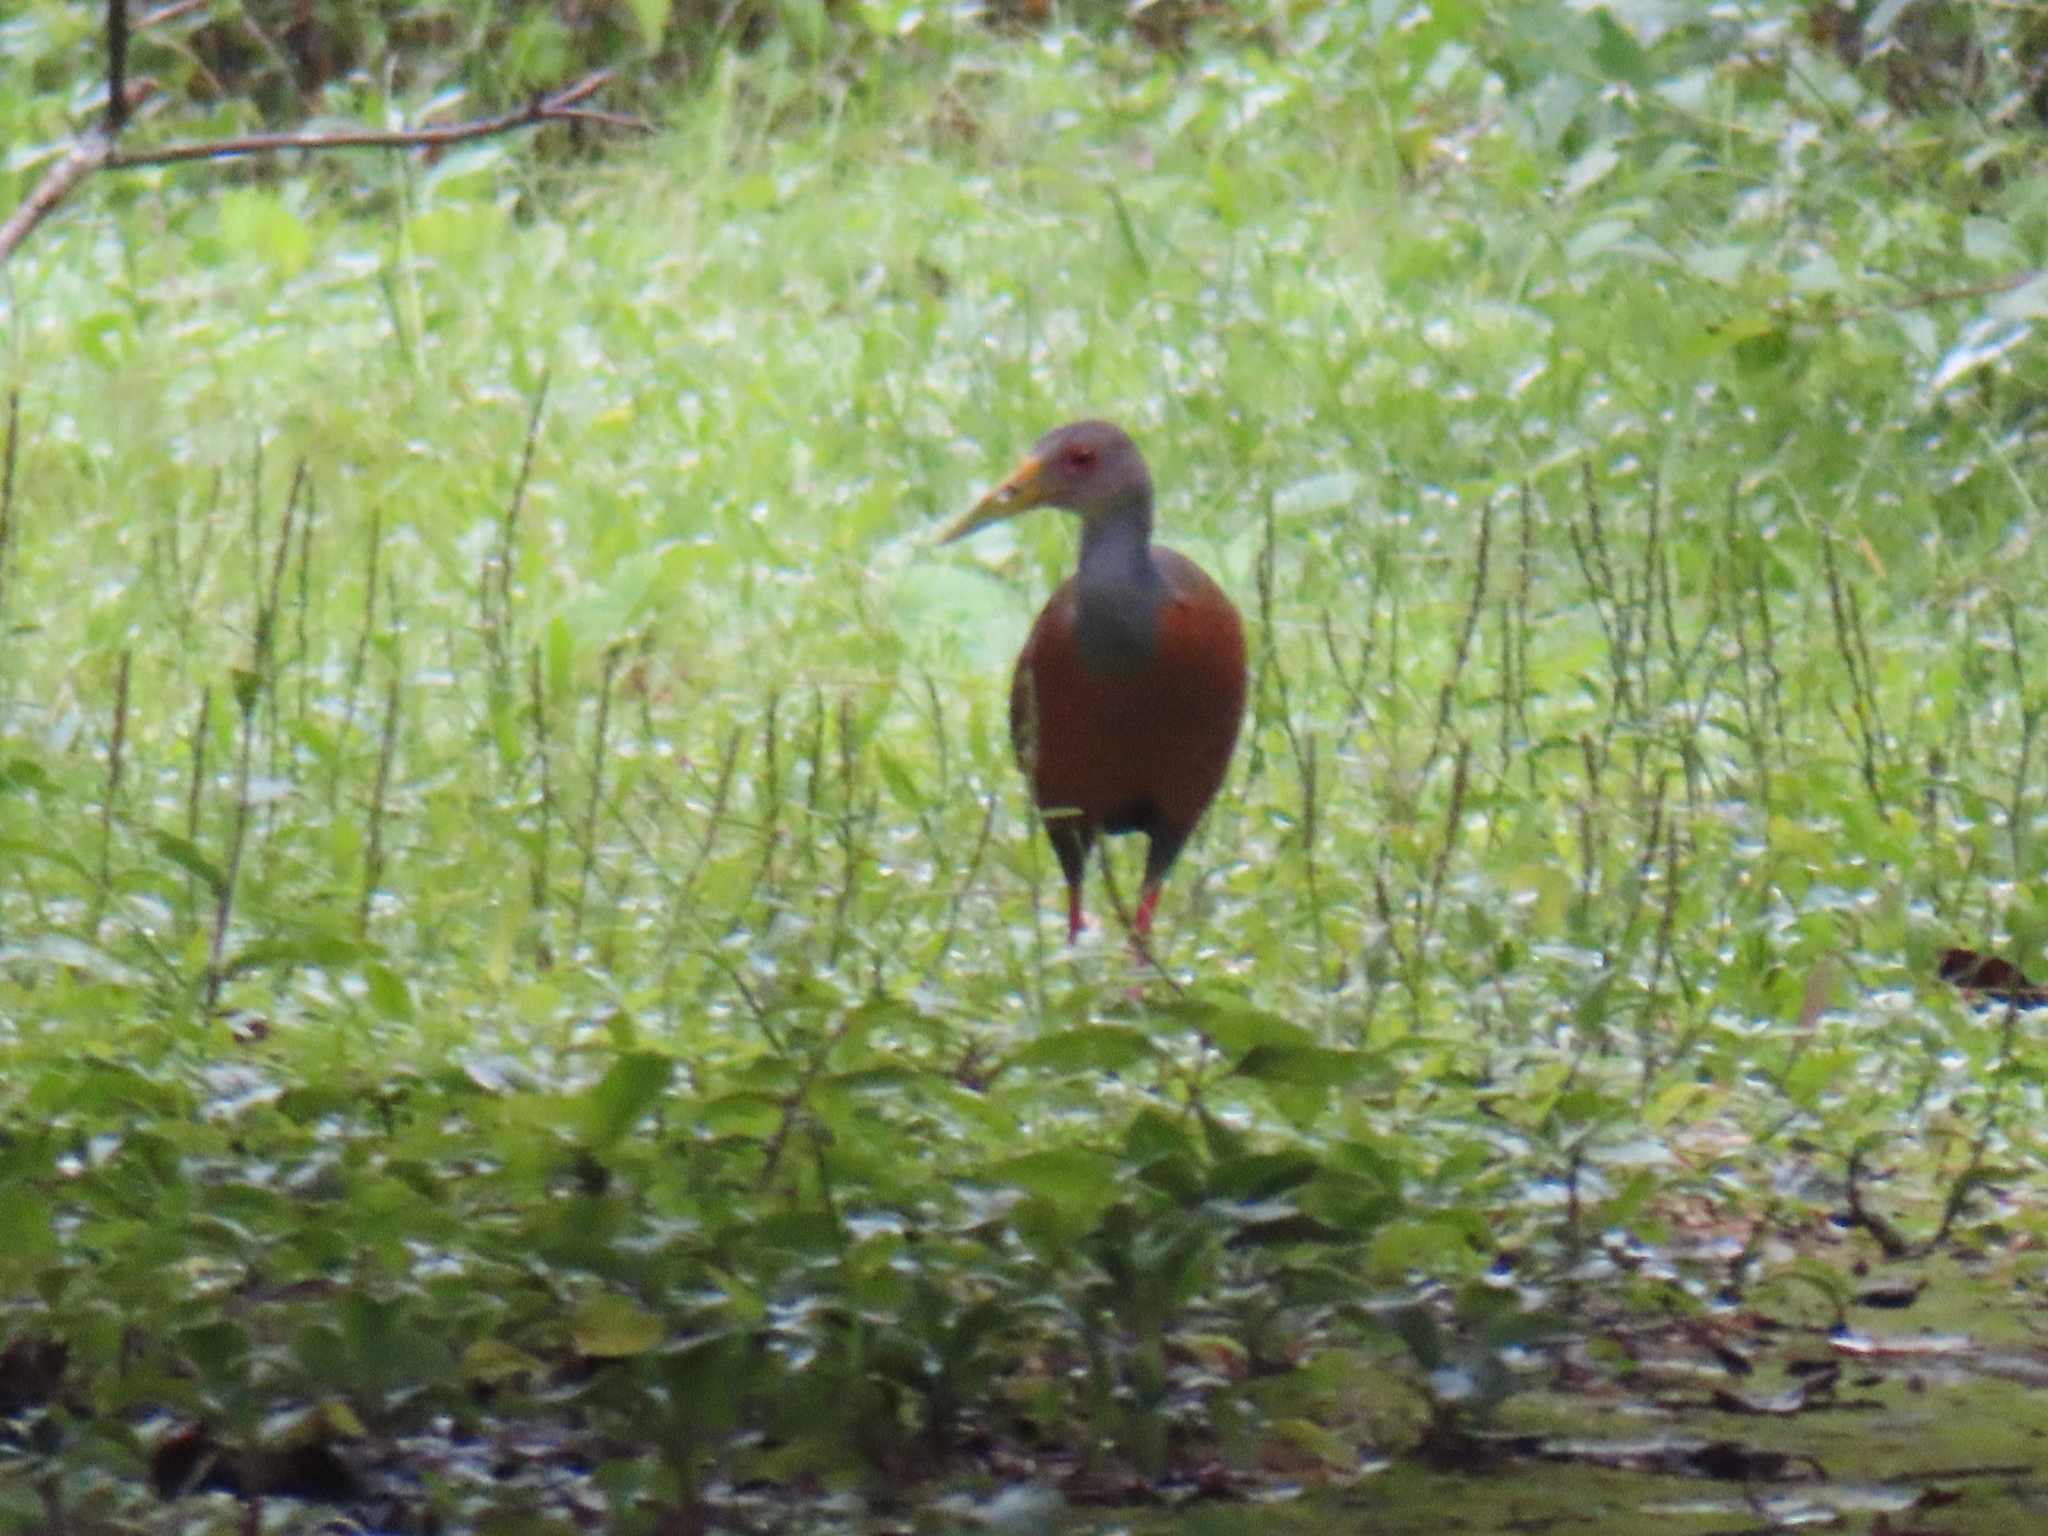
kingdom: Animalia
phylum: Chordata
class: Aves
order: Gruiformes
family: Rallidae
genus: Aramides
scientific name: Aramides cajanea
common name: Gray-necked wood-rail
